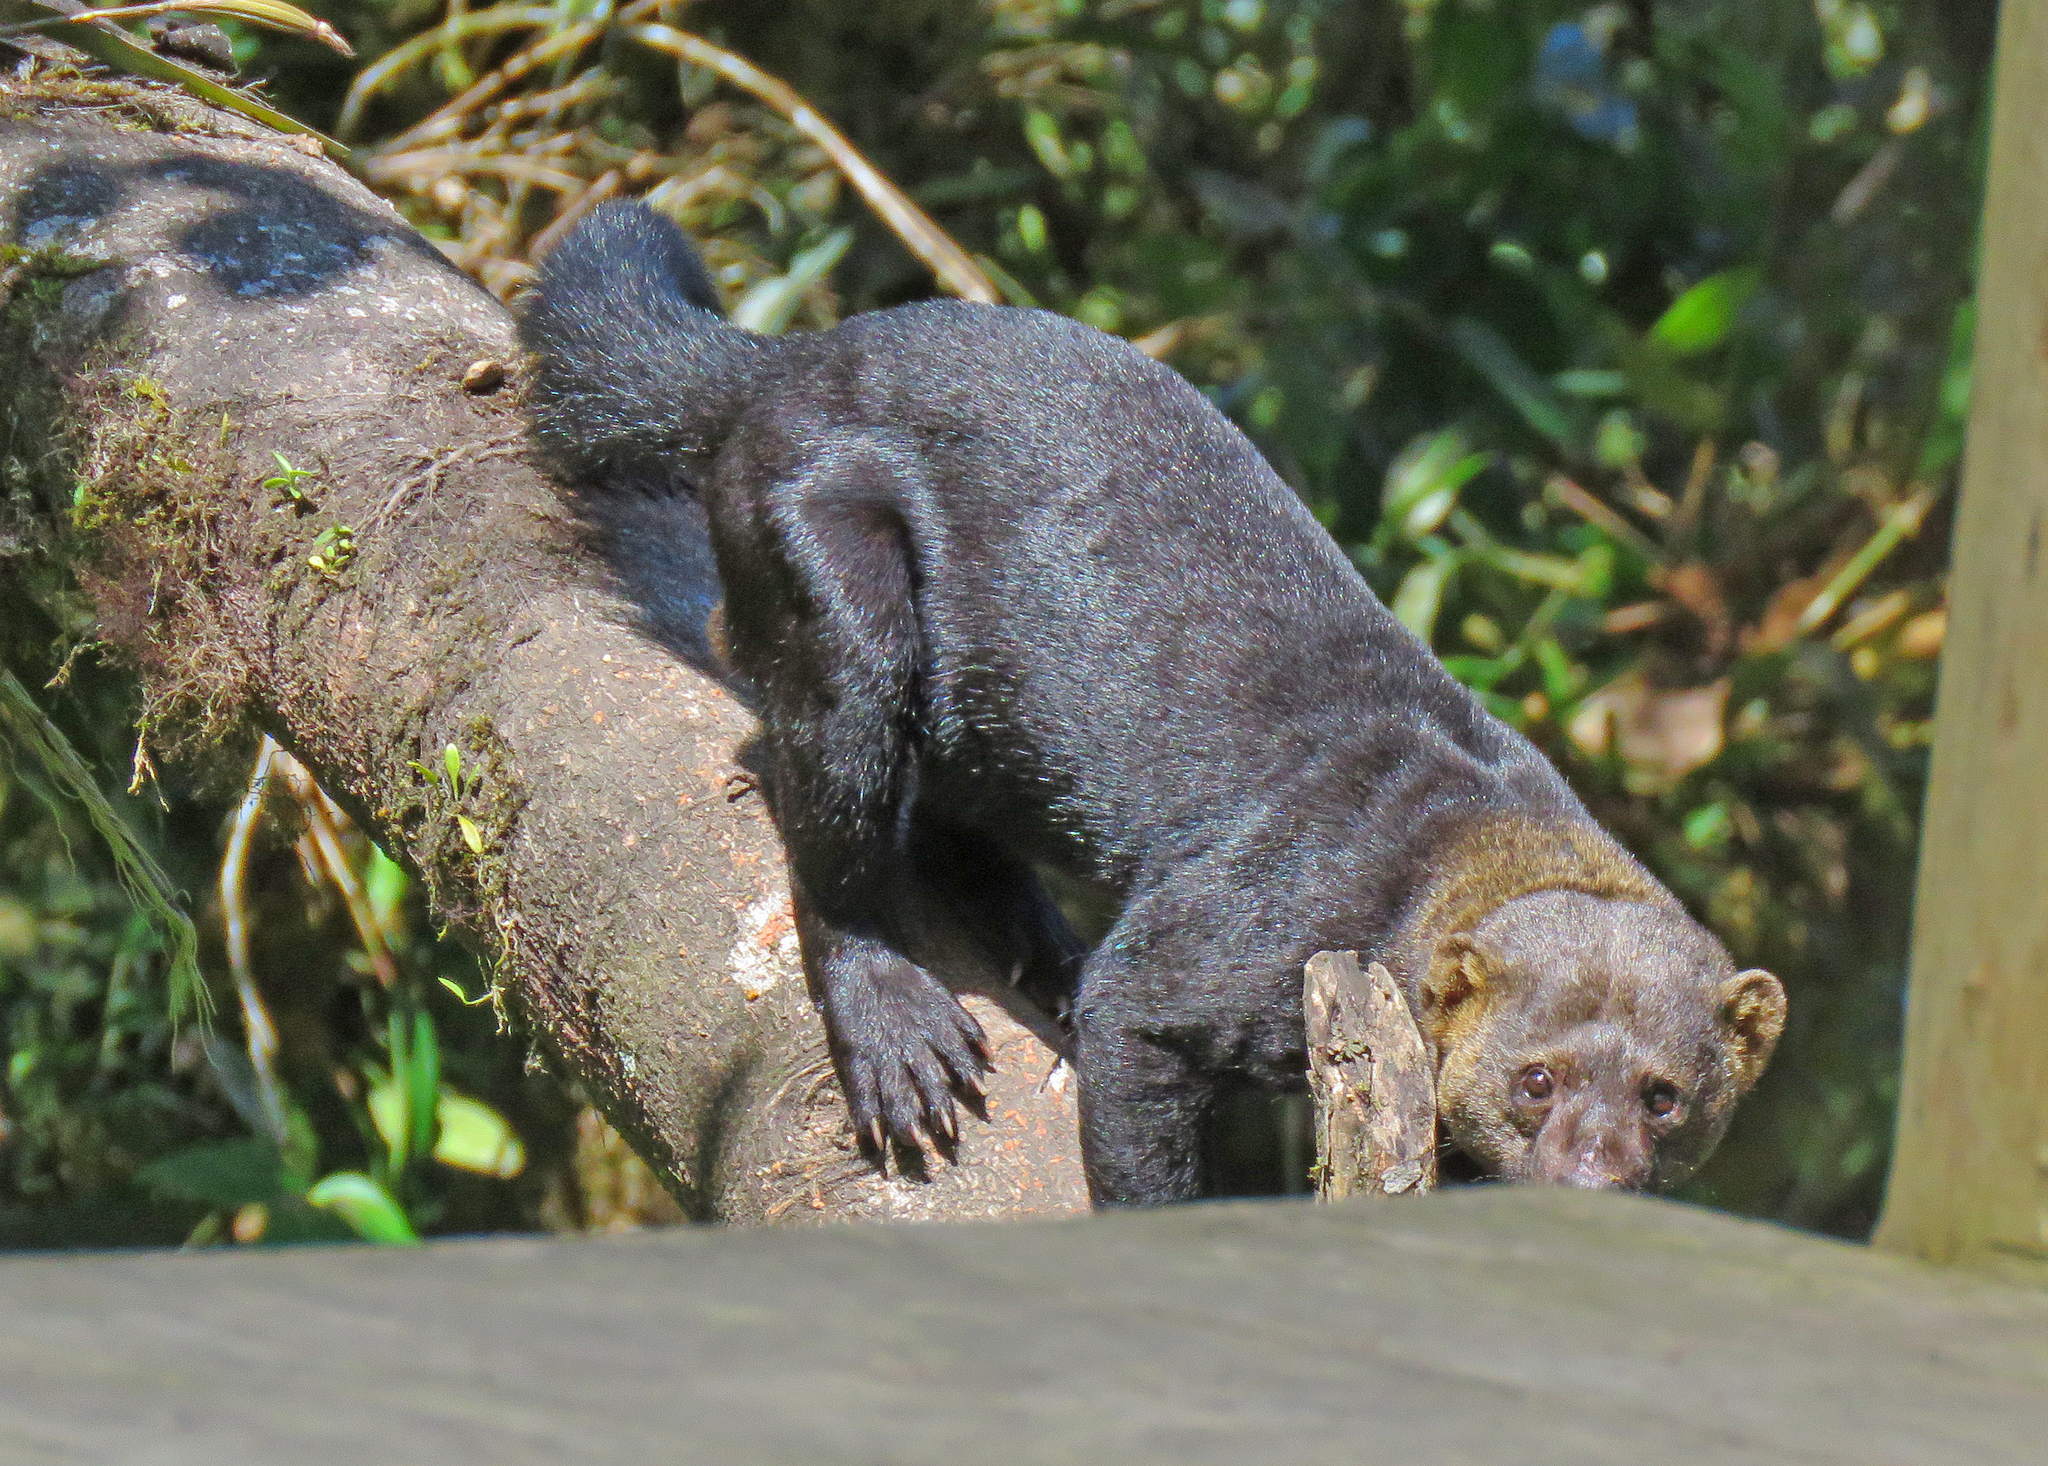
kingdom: Animalia
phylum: Chordata
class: Mammalia
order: Carnivora
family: Mustelidae
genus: Eira
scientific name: Eira barbara
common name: Tayra
